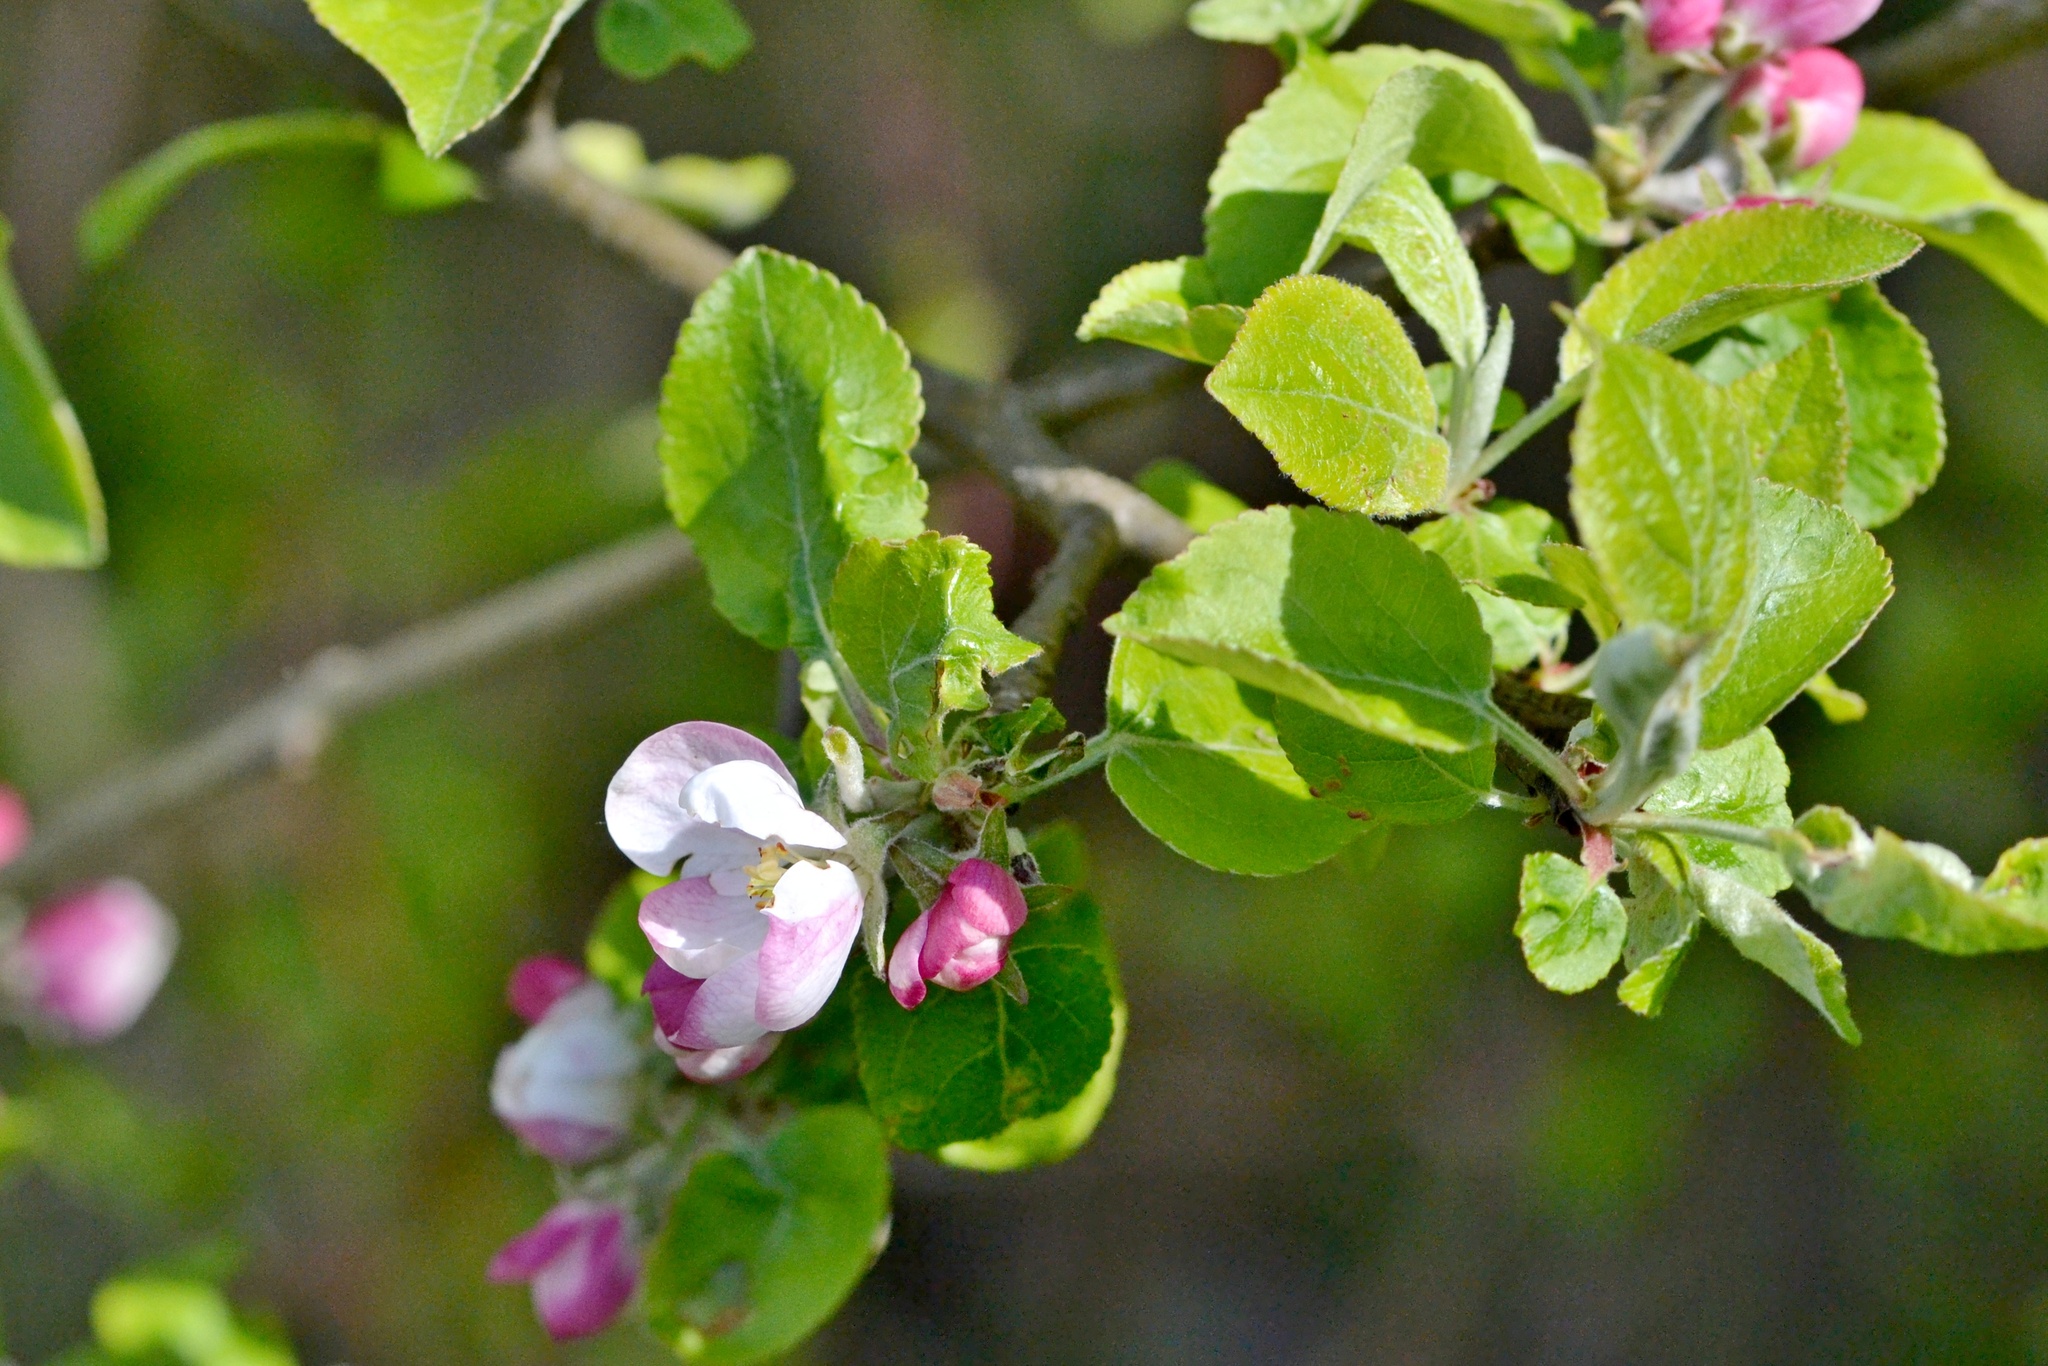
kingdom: Plantae
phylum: Tracheophyta
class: Magnoliopsida
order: Rosales
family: Rosaceae
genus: Malus
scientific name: Malus domestica
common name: Apple
